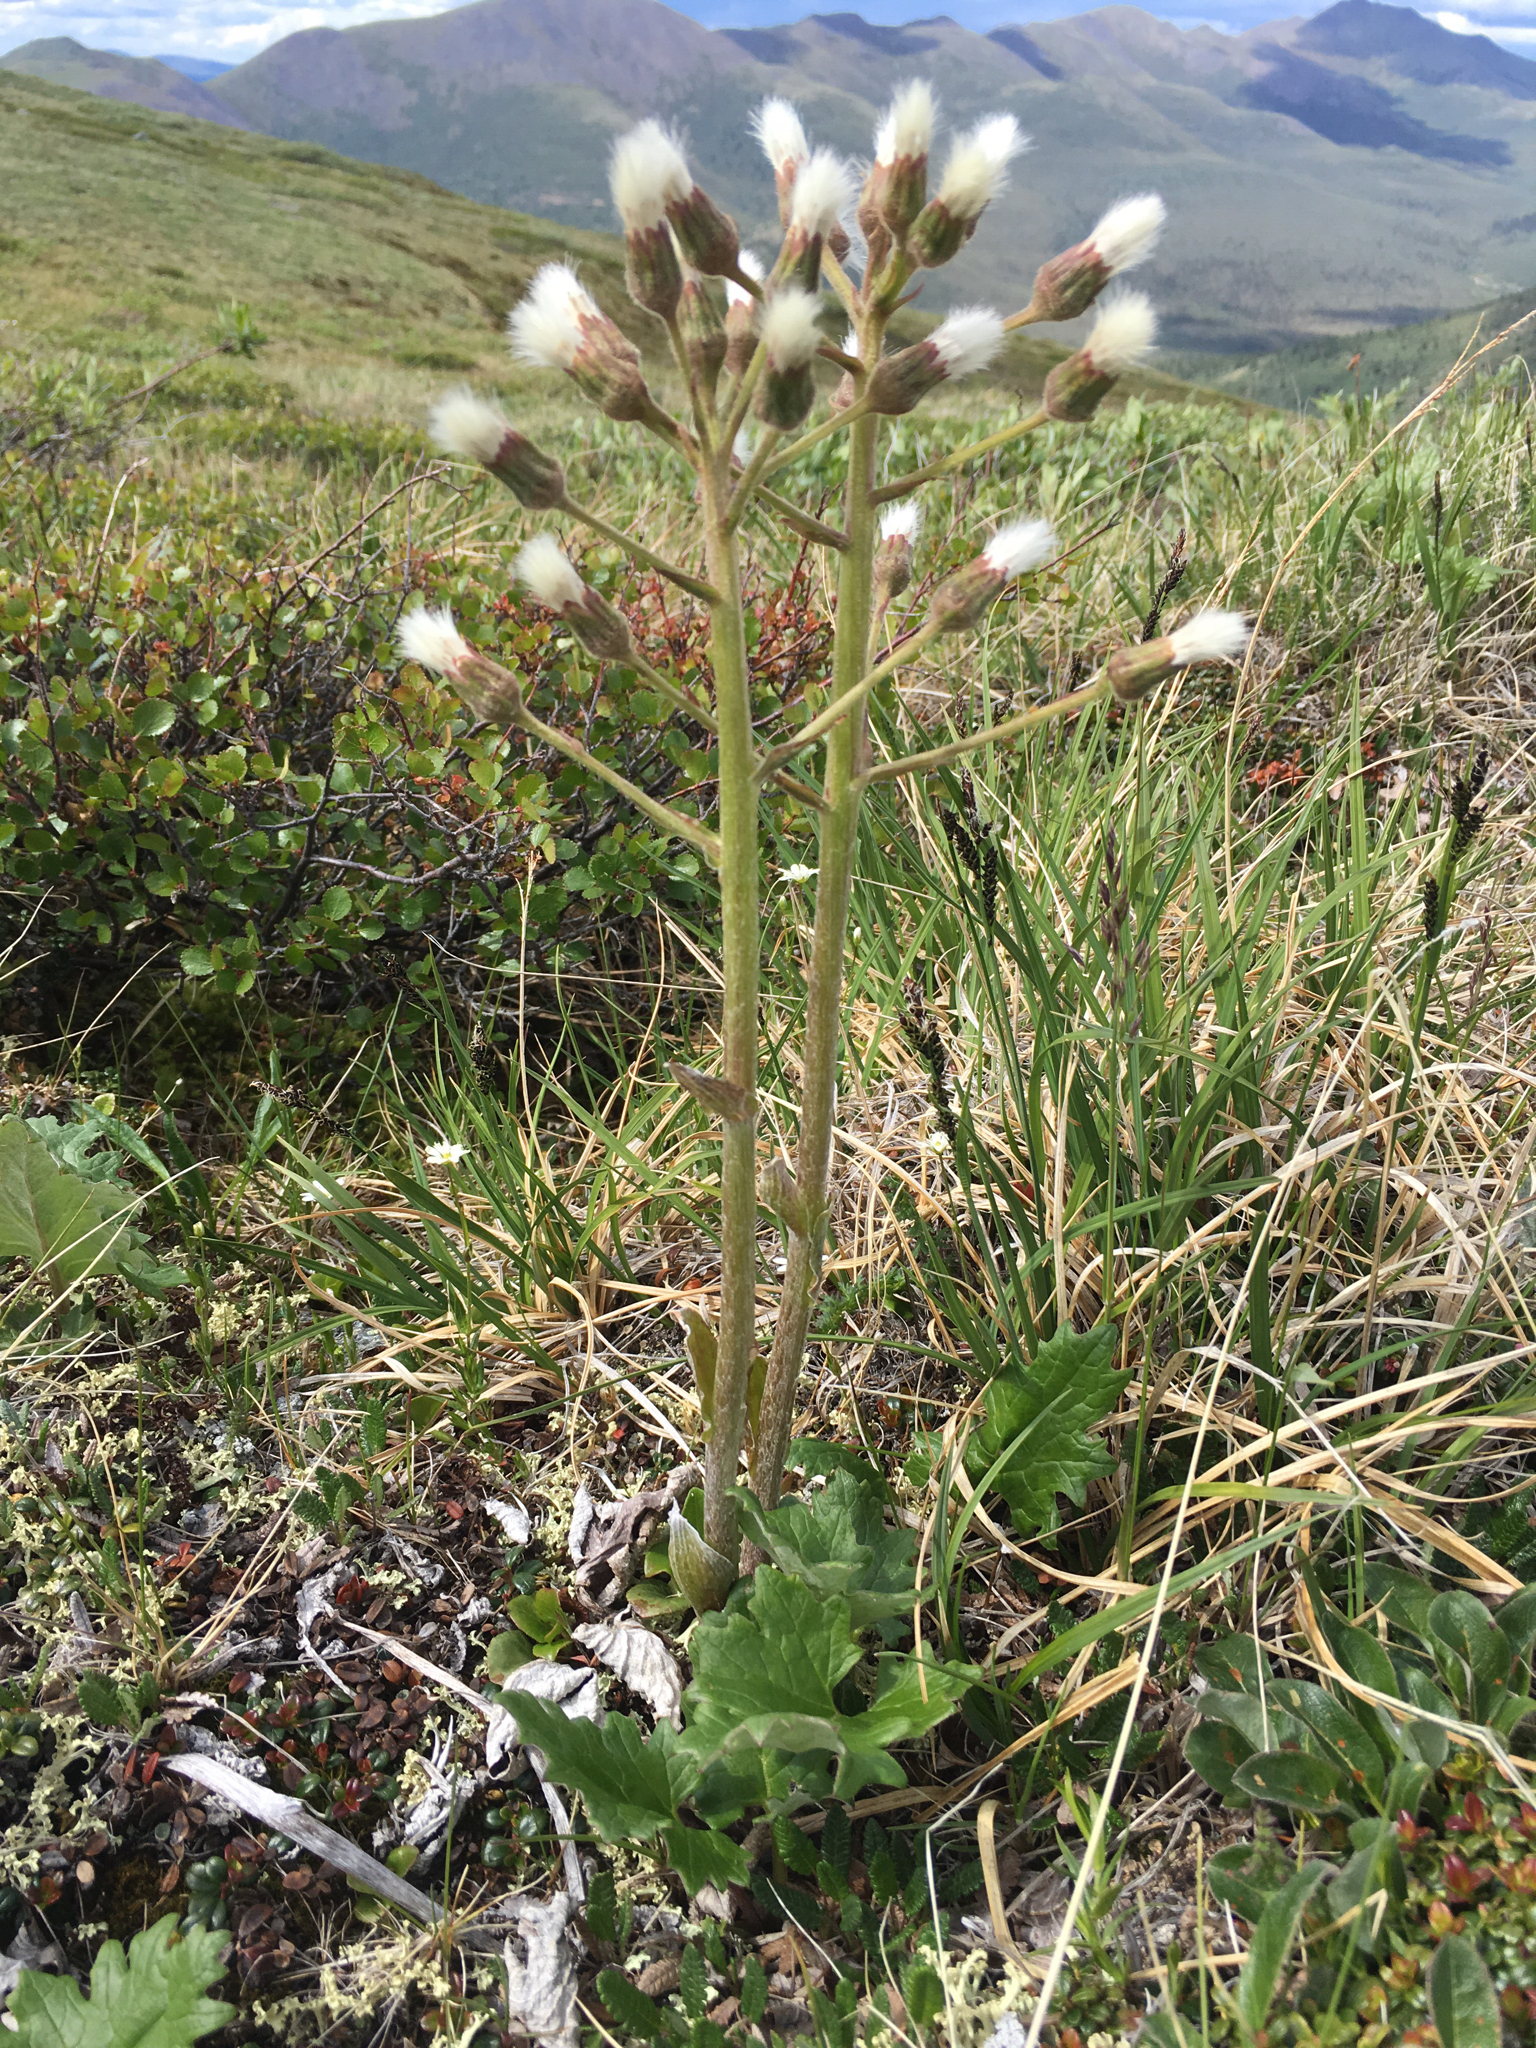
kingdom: Plantae
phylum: Tracheophyta
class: Magnoliopsida
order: Asterales
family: Asteraceae
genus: Petasites
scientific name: Petasites frigidus
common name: Arctic butterbur
